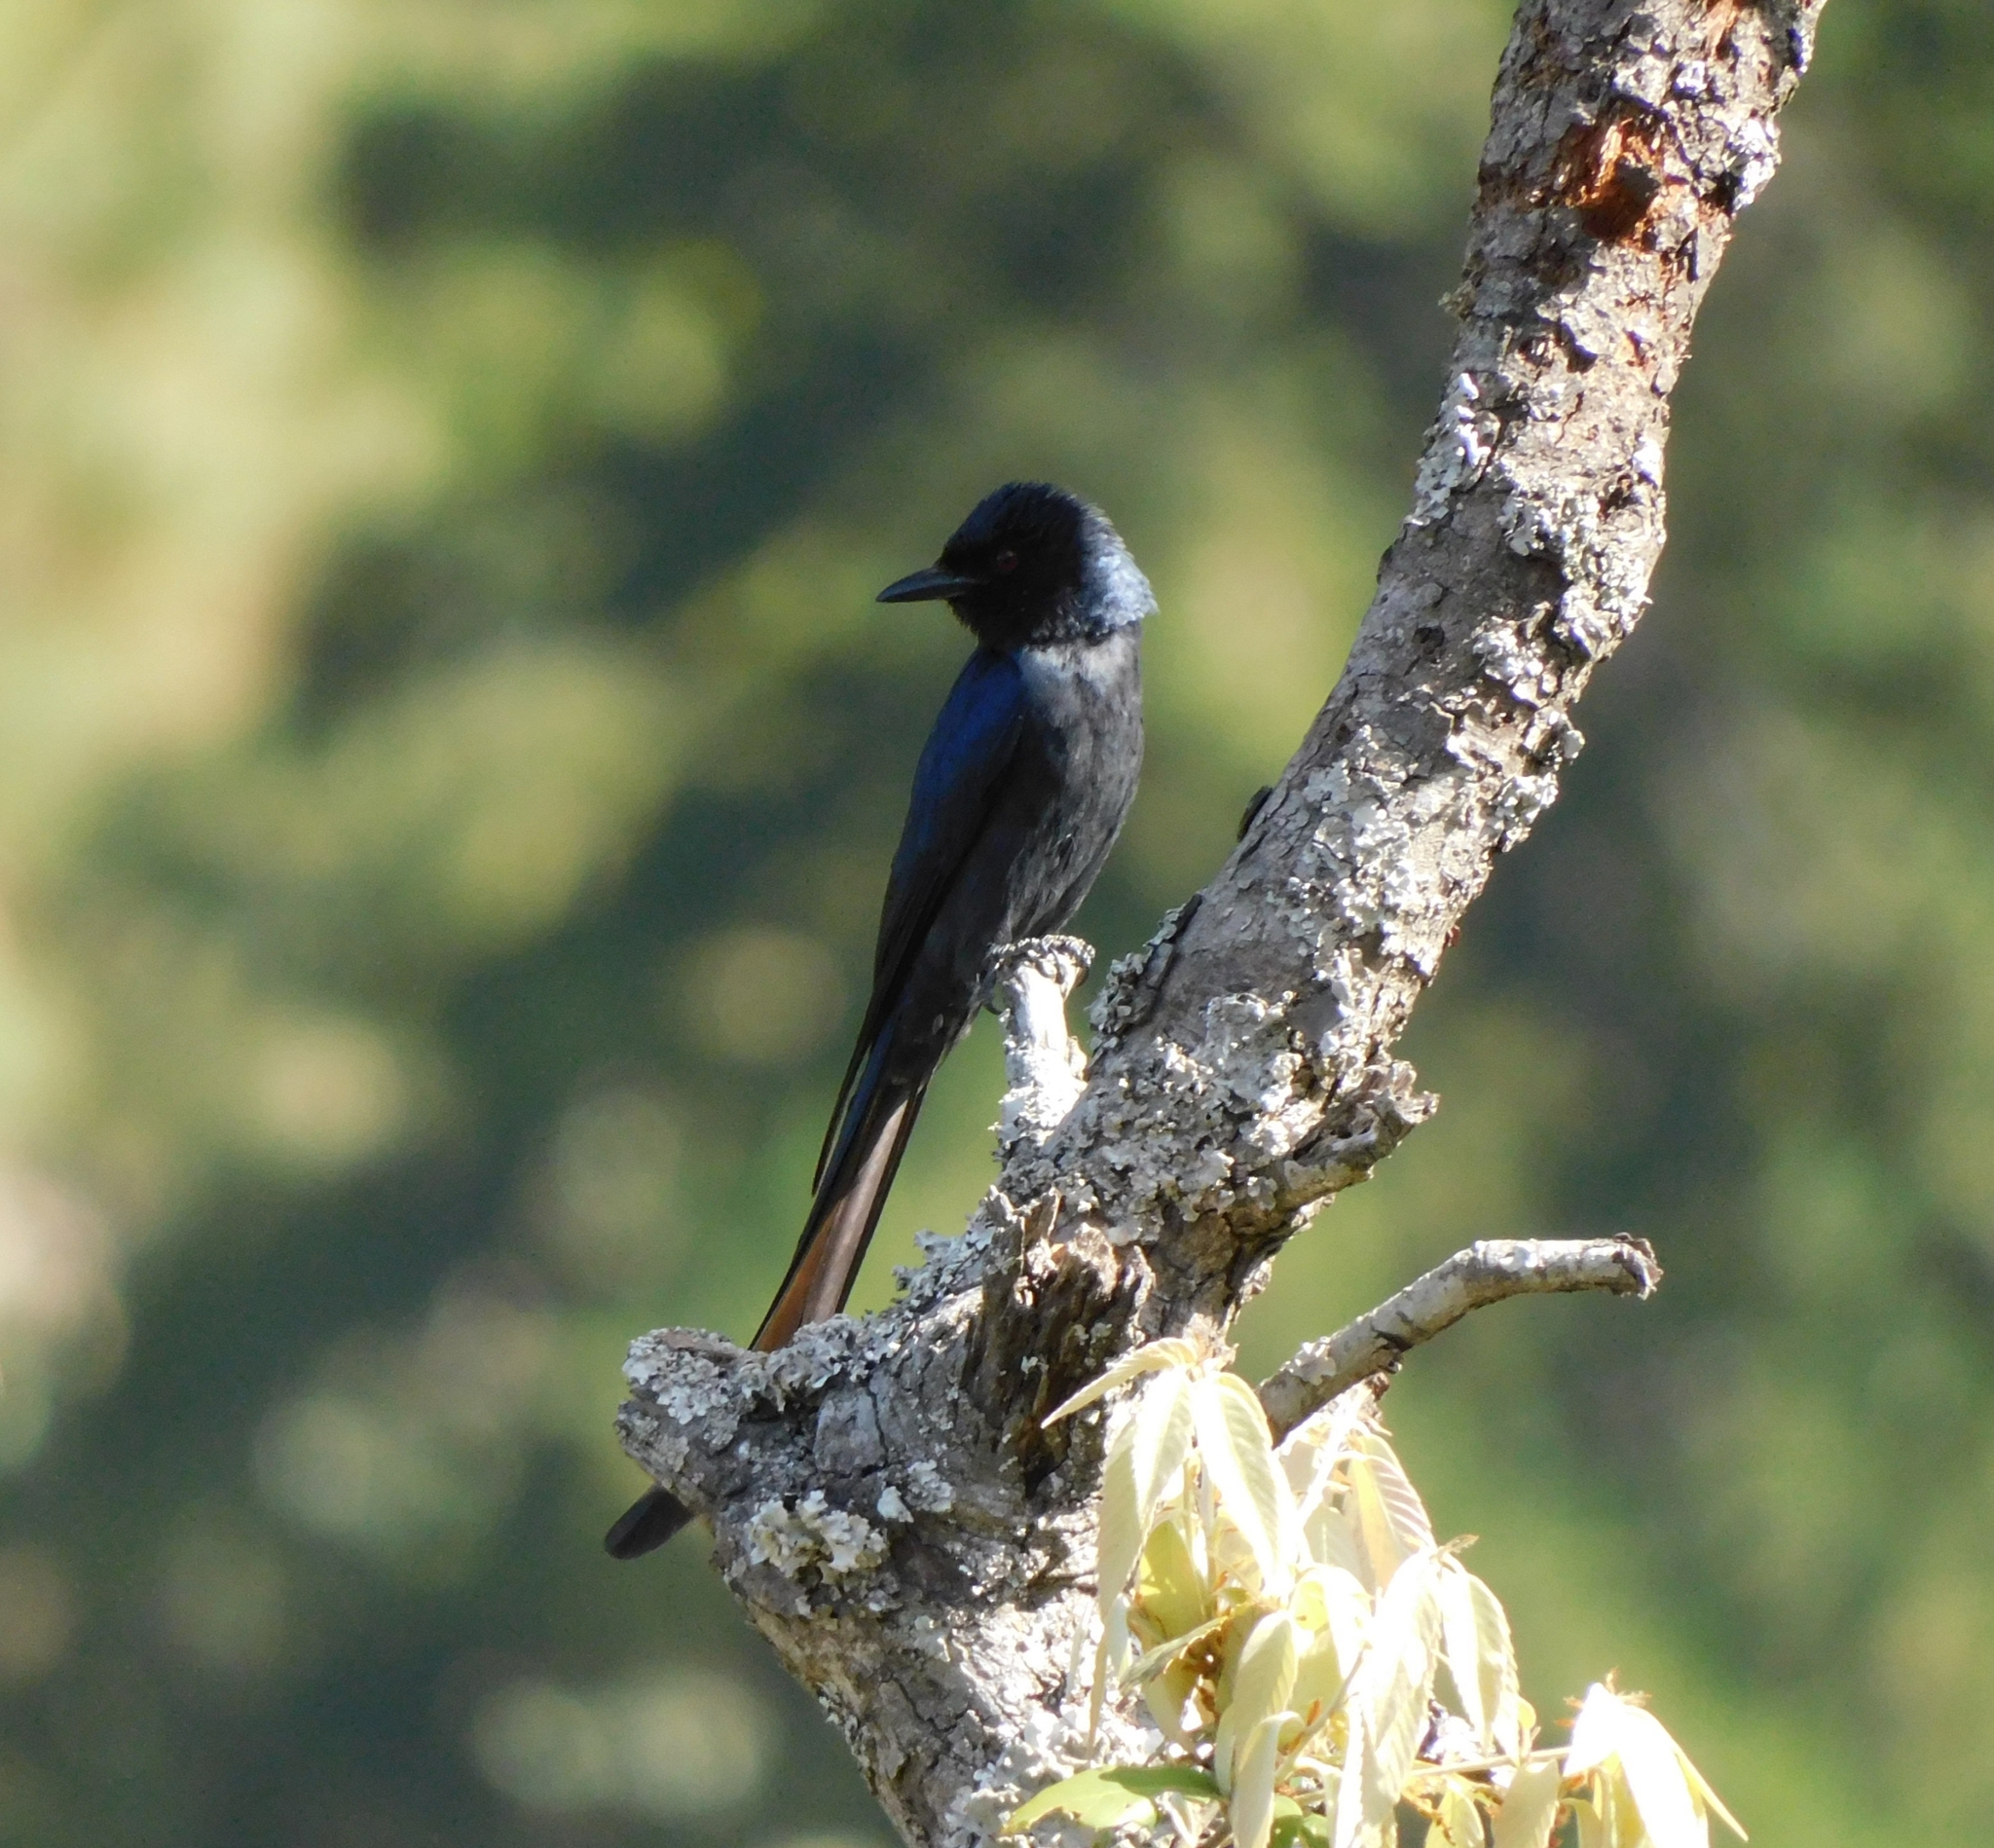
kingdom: Animalia
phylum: Chordata
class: Aves
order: Passeriformes
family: Dicruridae
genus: Dicrurus
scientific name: Dicrurus leucophaeus
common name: Ashy drongo
